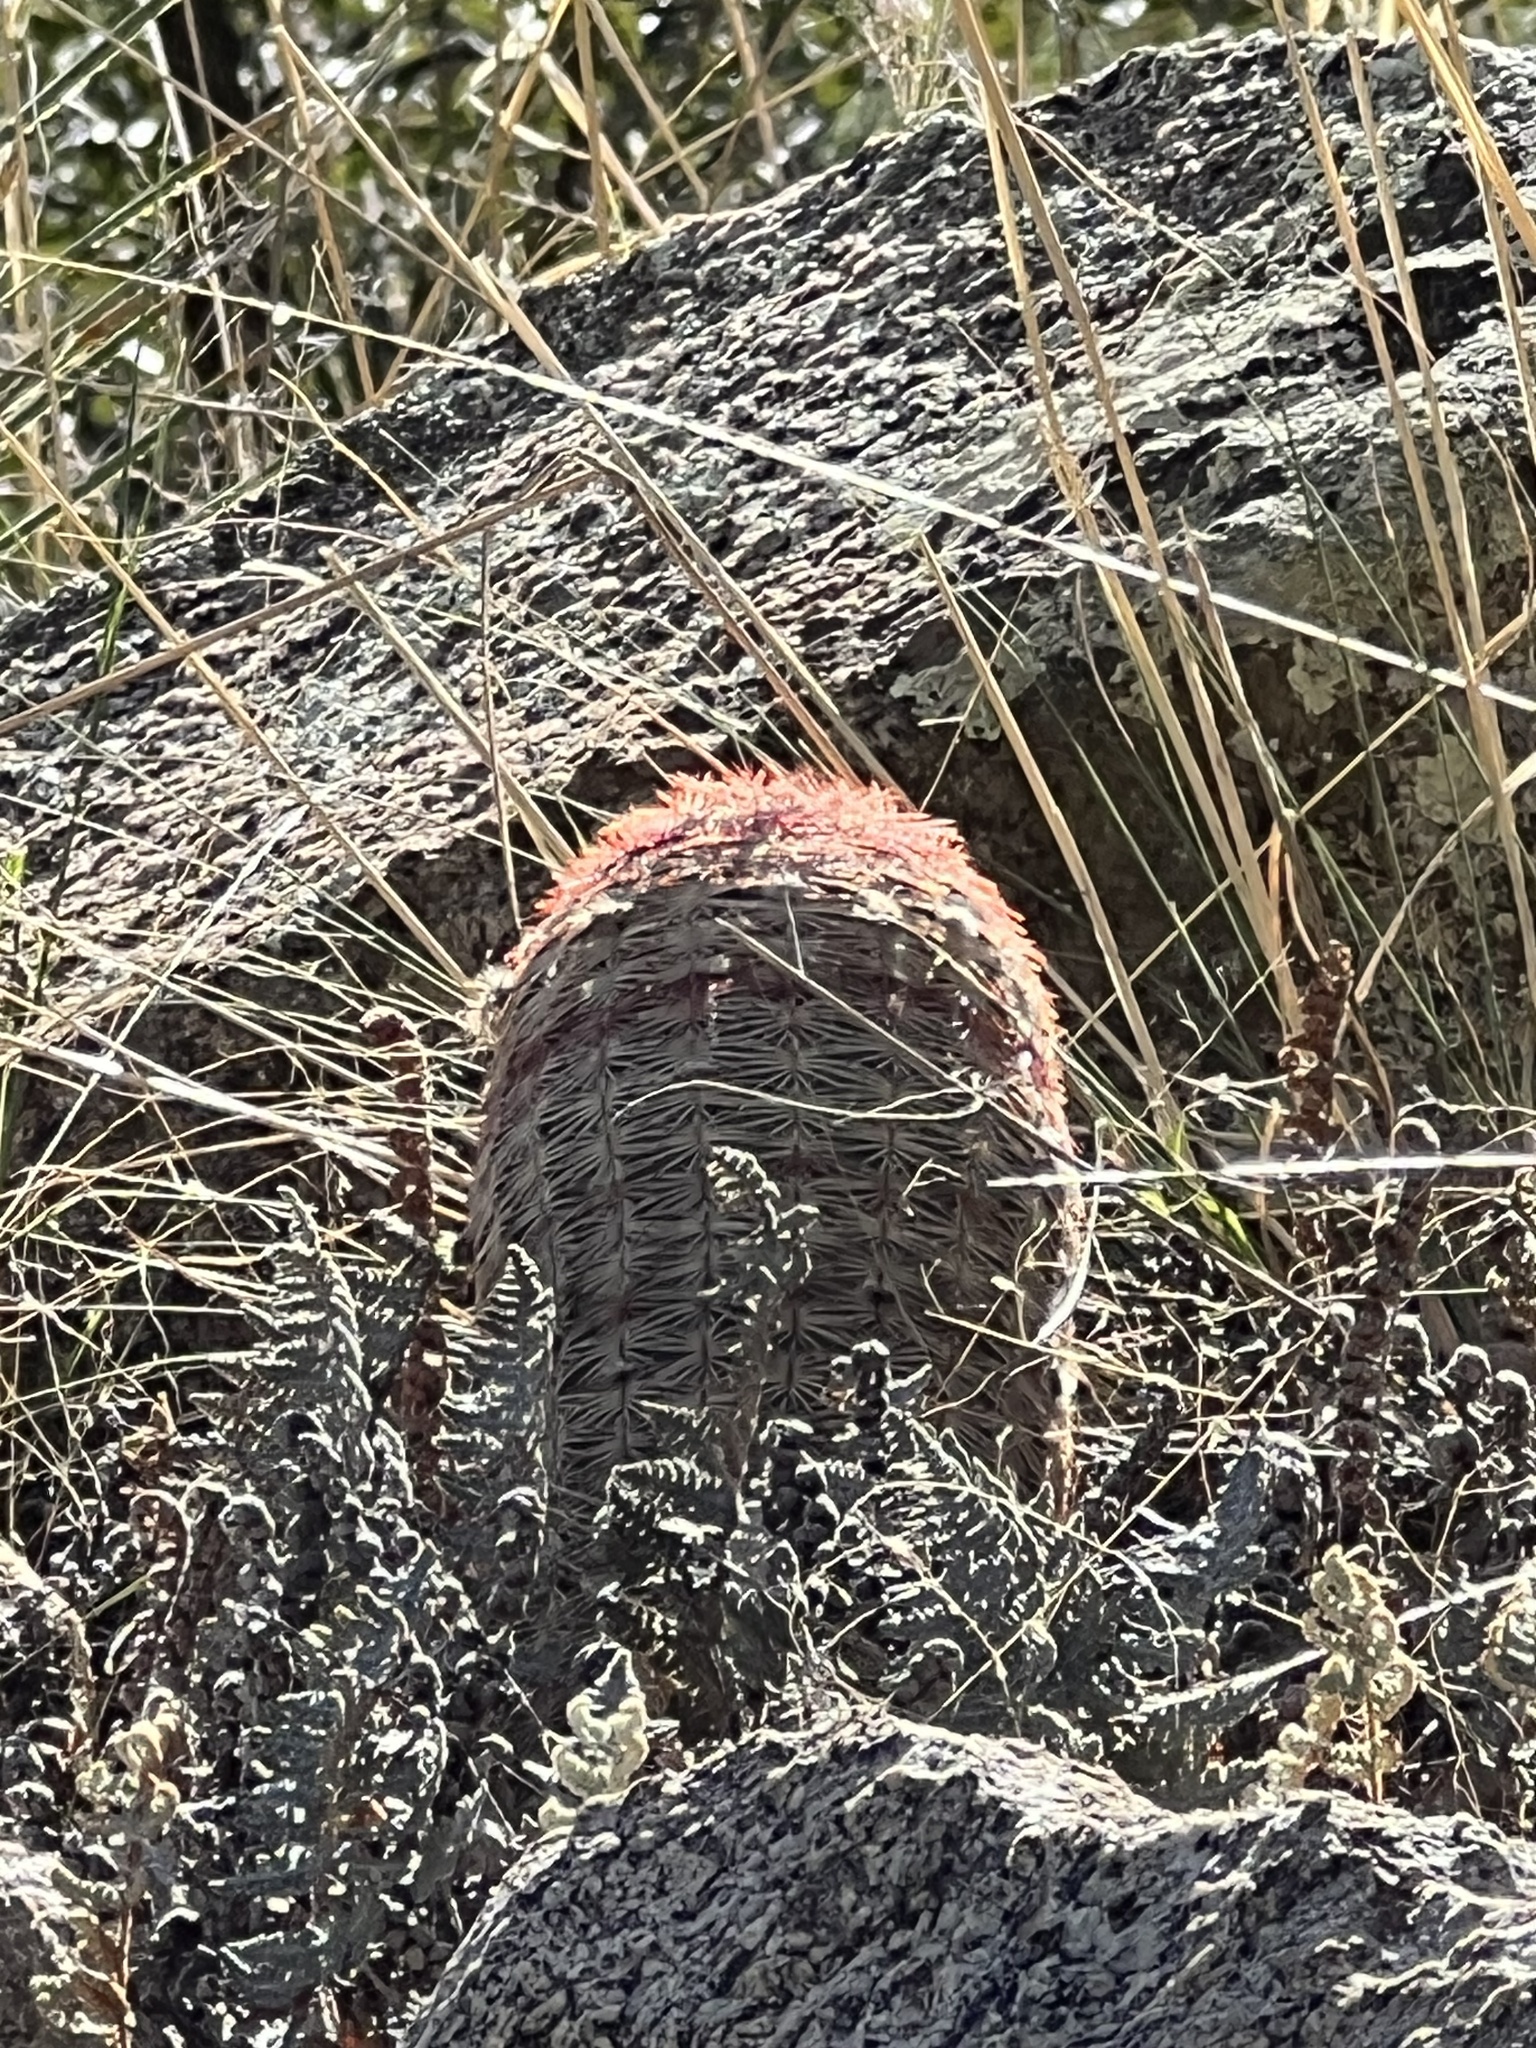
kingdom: Plantae
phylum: Tracheophyta
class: Magnoliopsida
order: Caryophyllales
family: Cactaceae
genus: Echinocereus
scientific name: Echinocereus rigidissimus
